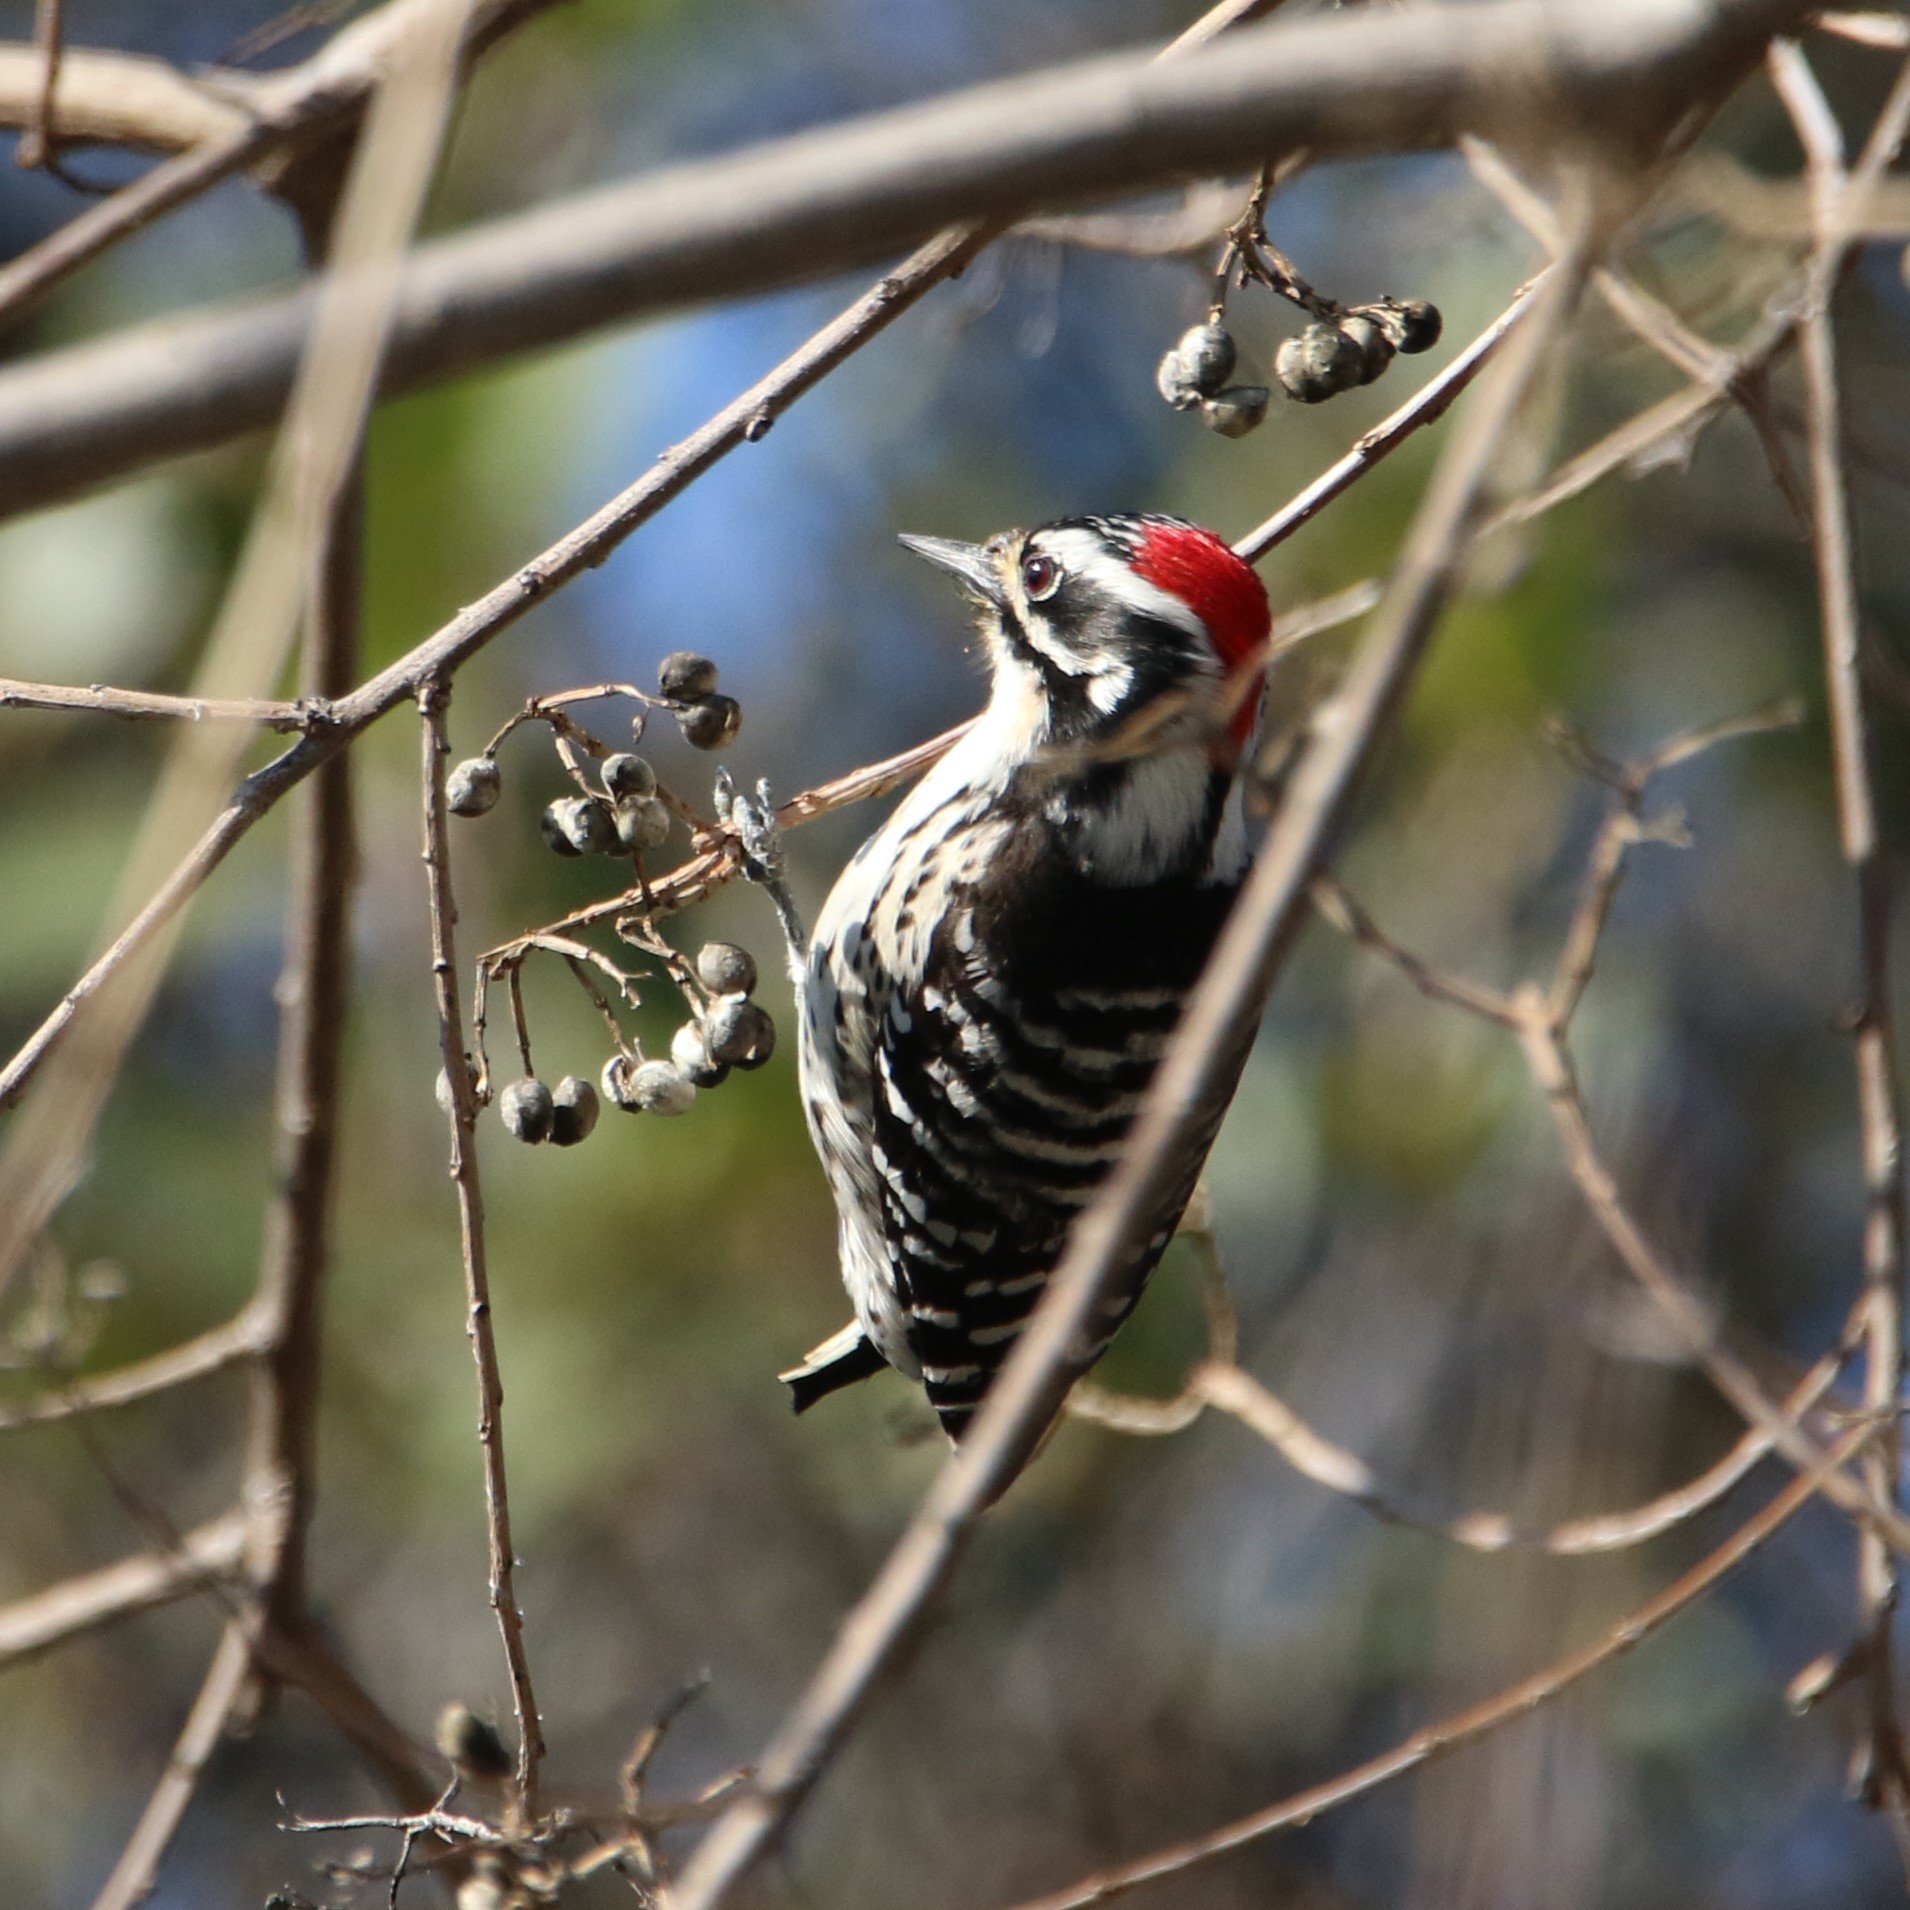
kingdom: Animalia
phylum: Chordata
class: Aves
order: Piciformes
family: Picidae
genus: Dryobates
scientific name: Dryobates nuttallii
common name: Nuttall's woodpecker
